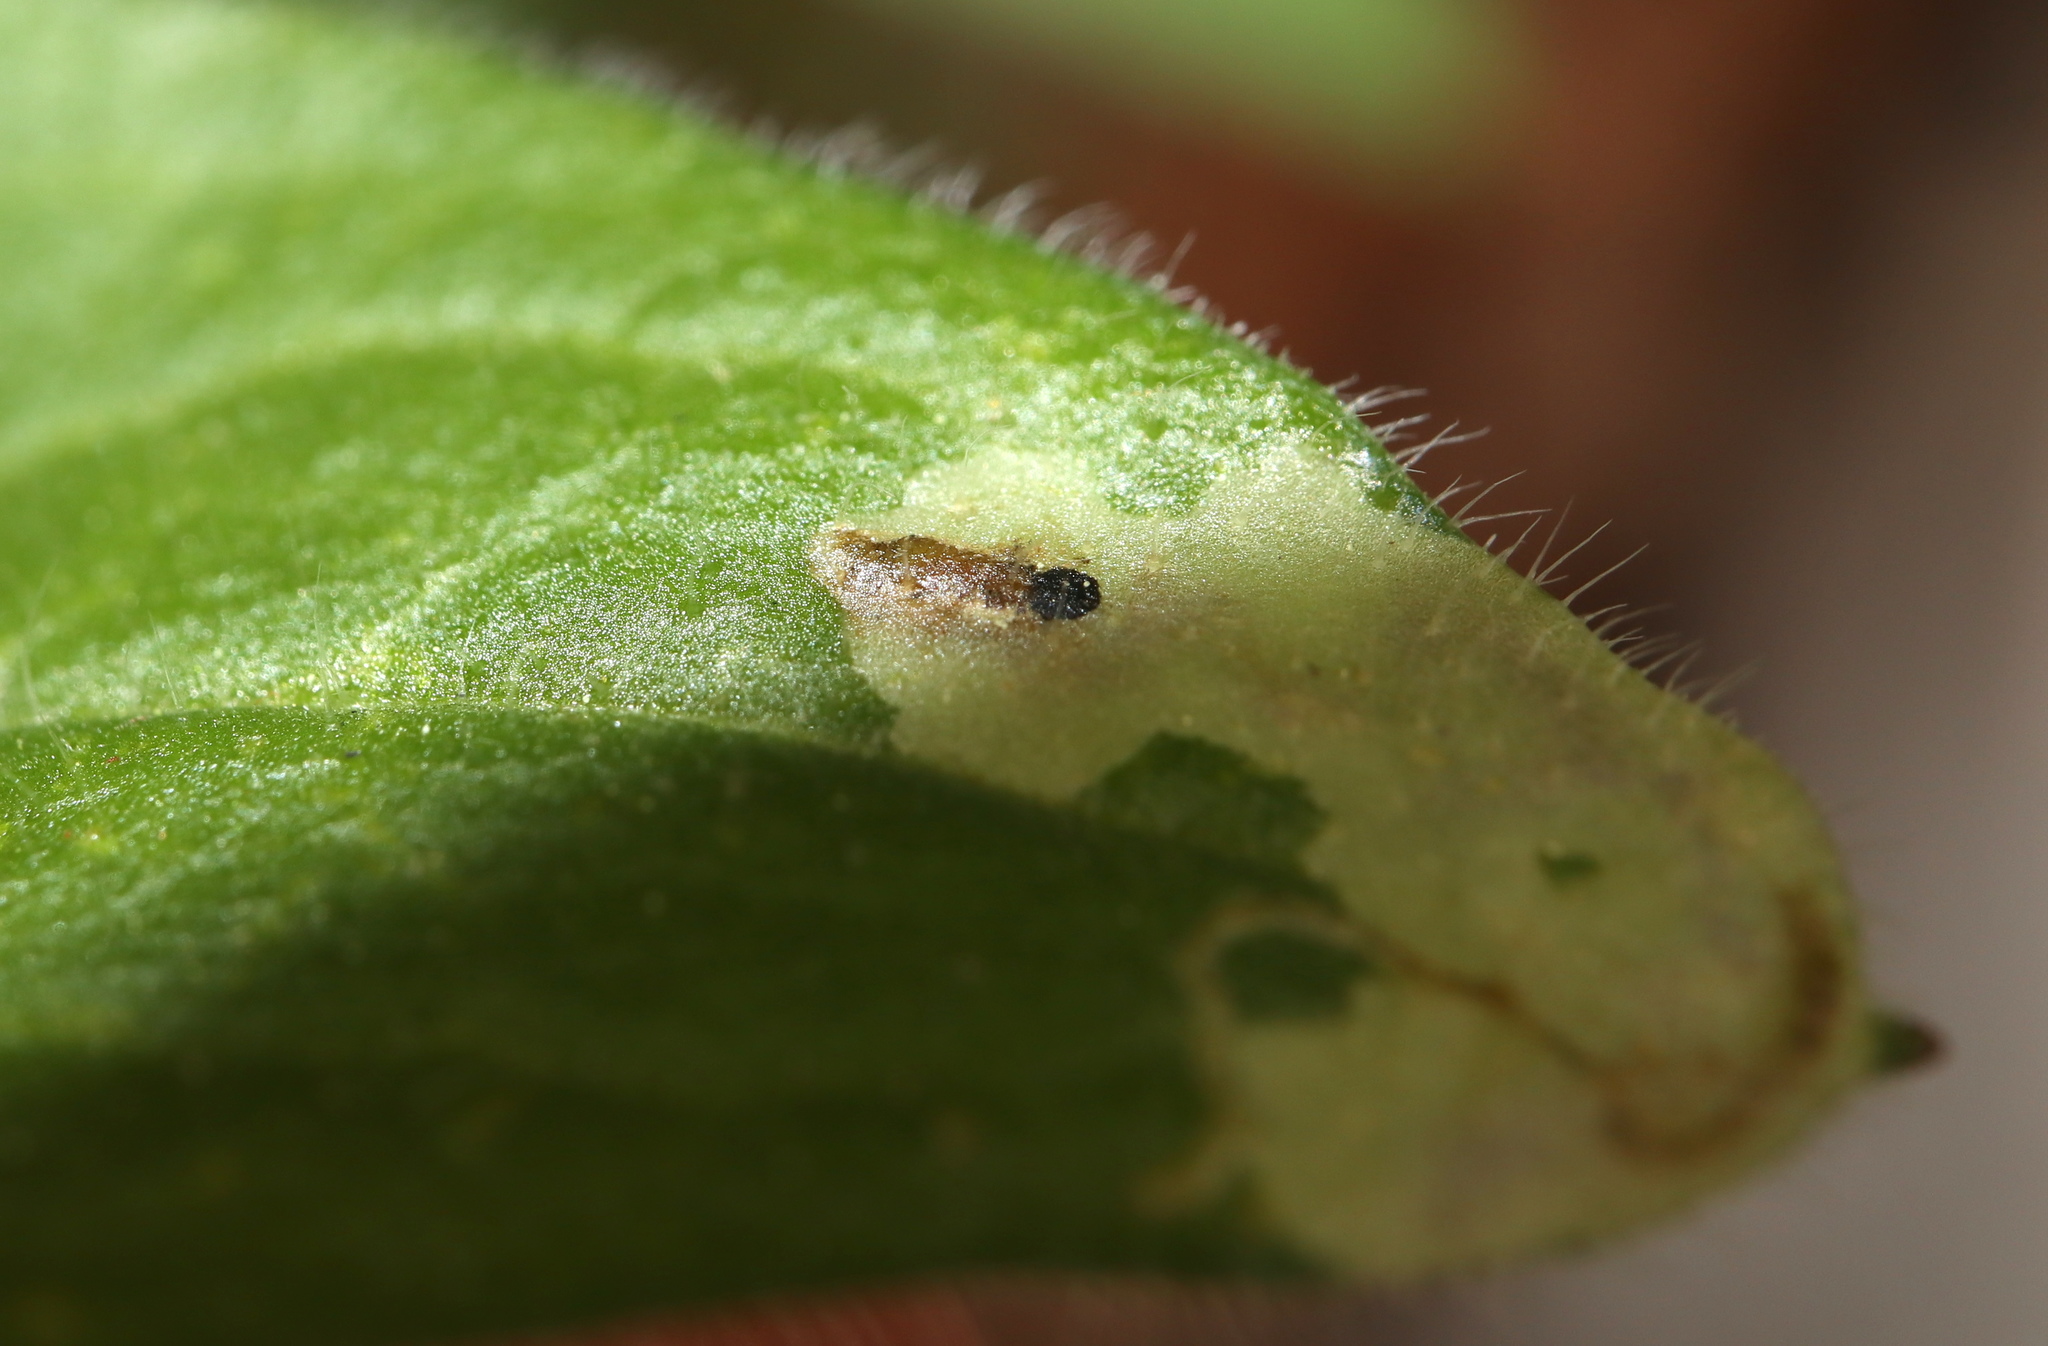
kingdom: Animalia
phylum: Arthropoda
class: Insecta
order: Diptera
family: Agromyzidae
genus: Calycomyza
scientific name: Calycomyza humeralis
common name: Aster leafminer
